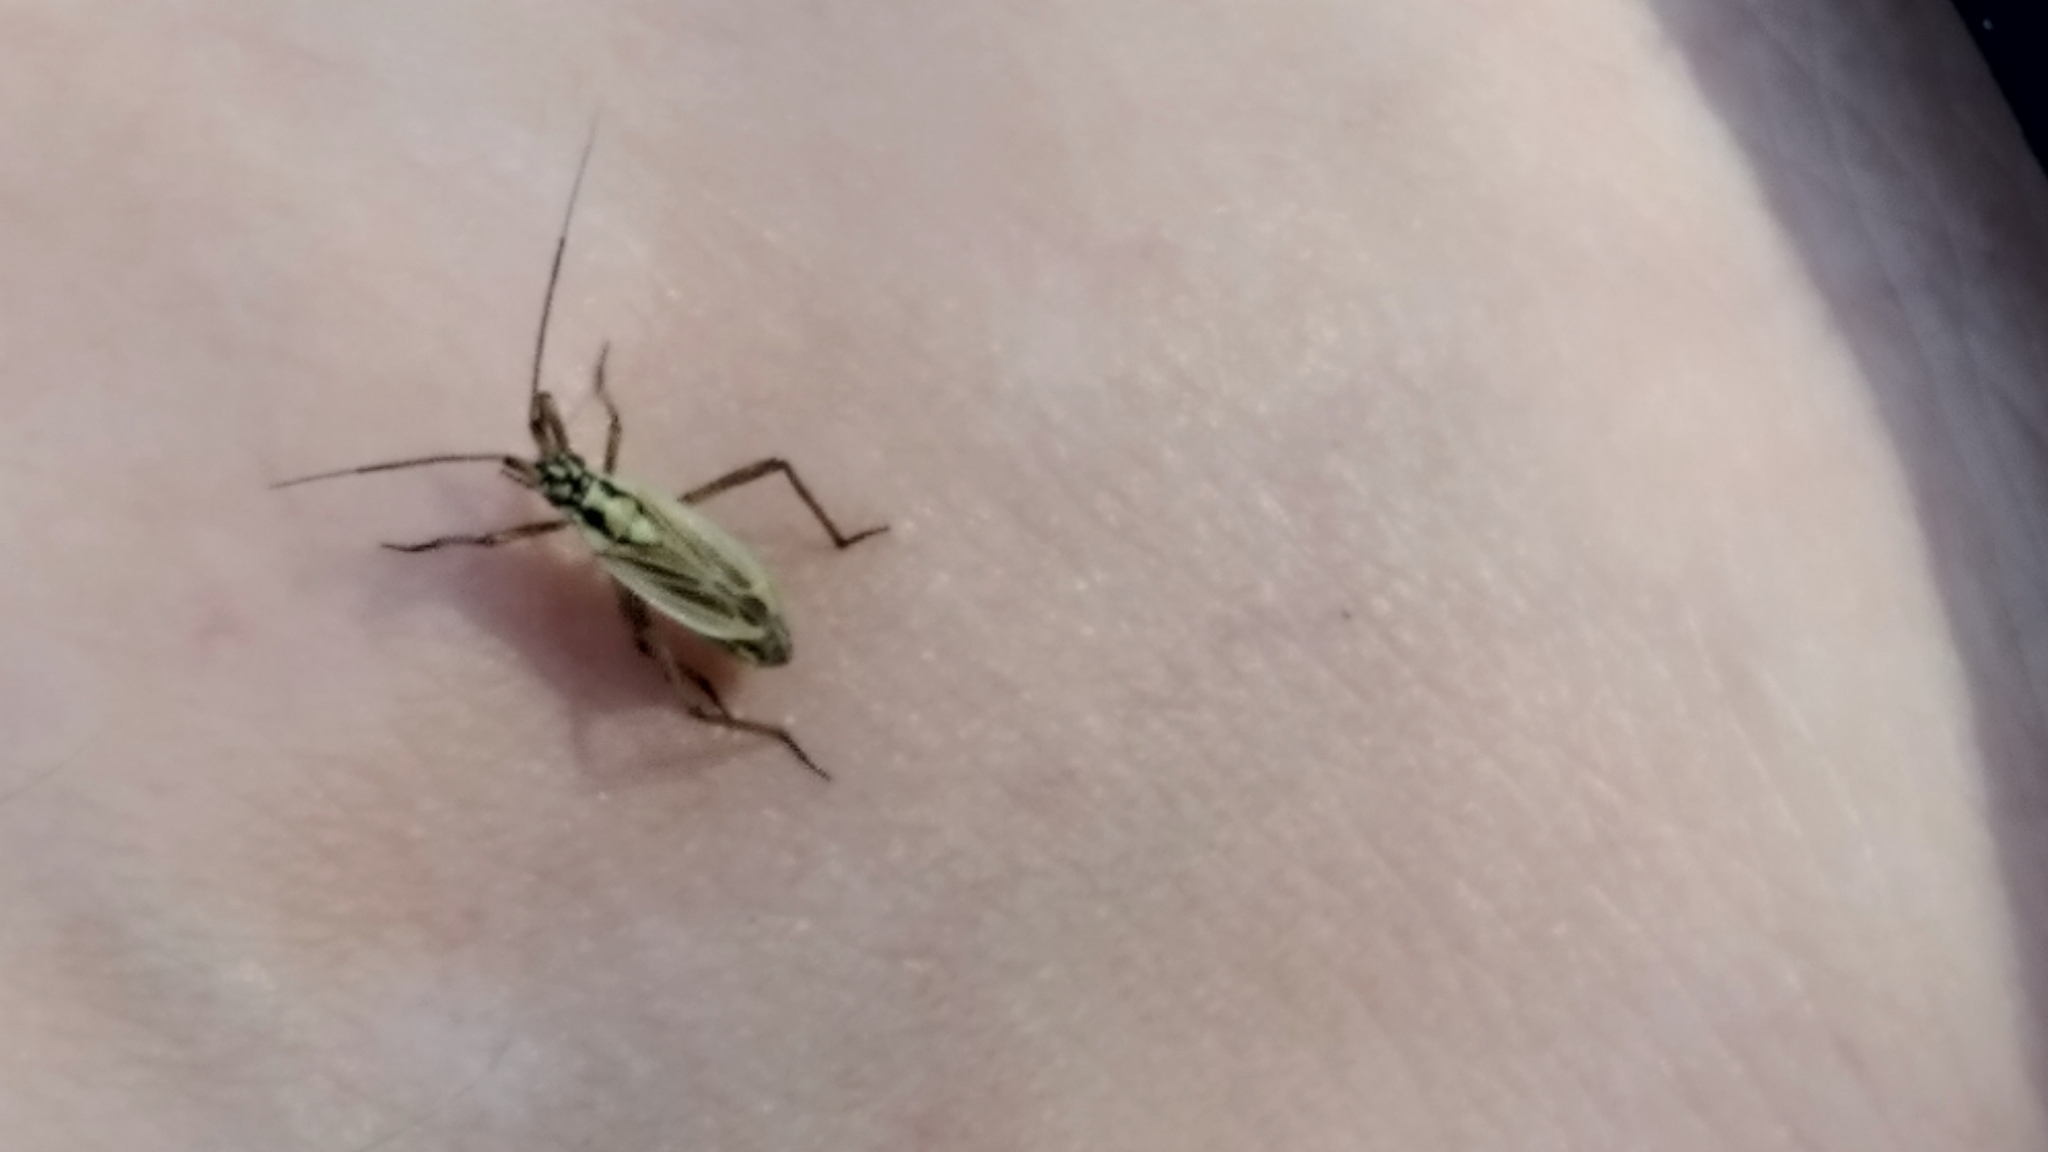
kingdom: Animalia
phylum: Arthropoda
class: Insecta
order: Hemiptera
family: Miridae
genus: Leptopterna
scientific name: Leptopterna dolabrata
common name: Meadow plant bug
